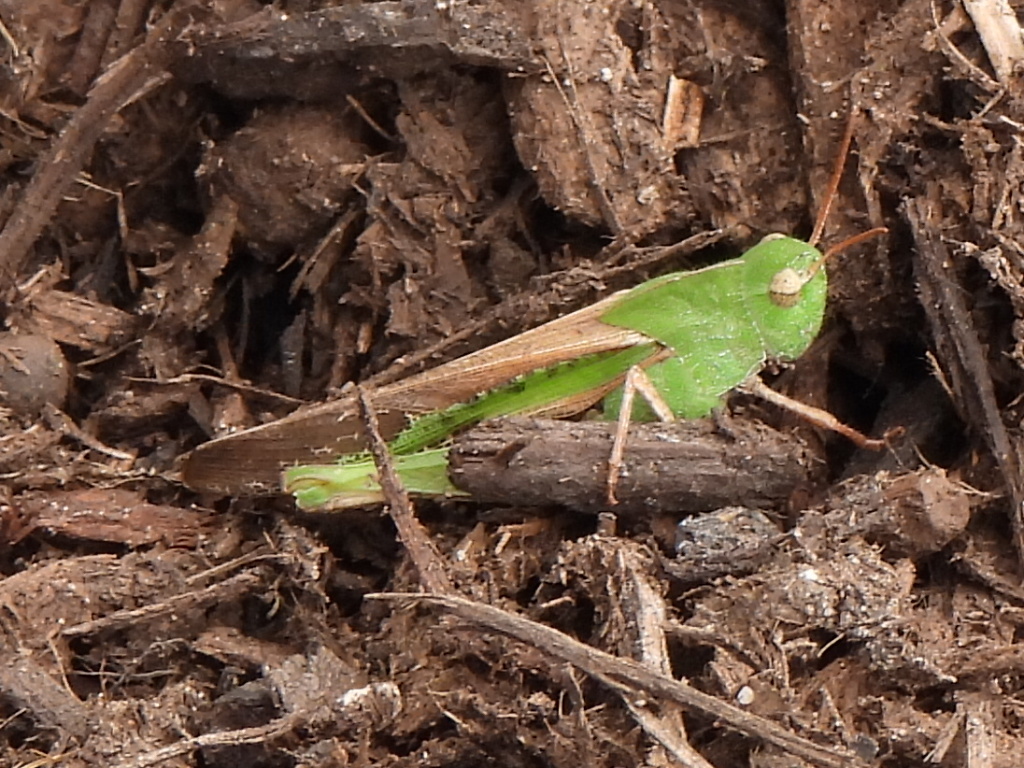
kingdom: Animalia
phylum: Arthropoda
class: Insecta
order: Orthoptera
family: Acrididae
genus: Chortophaga
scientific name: Chortophaga viridifasciata
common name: Green-striped grasshopper
